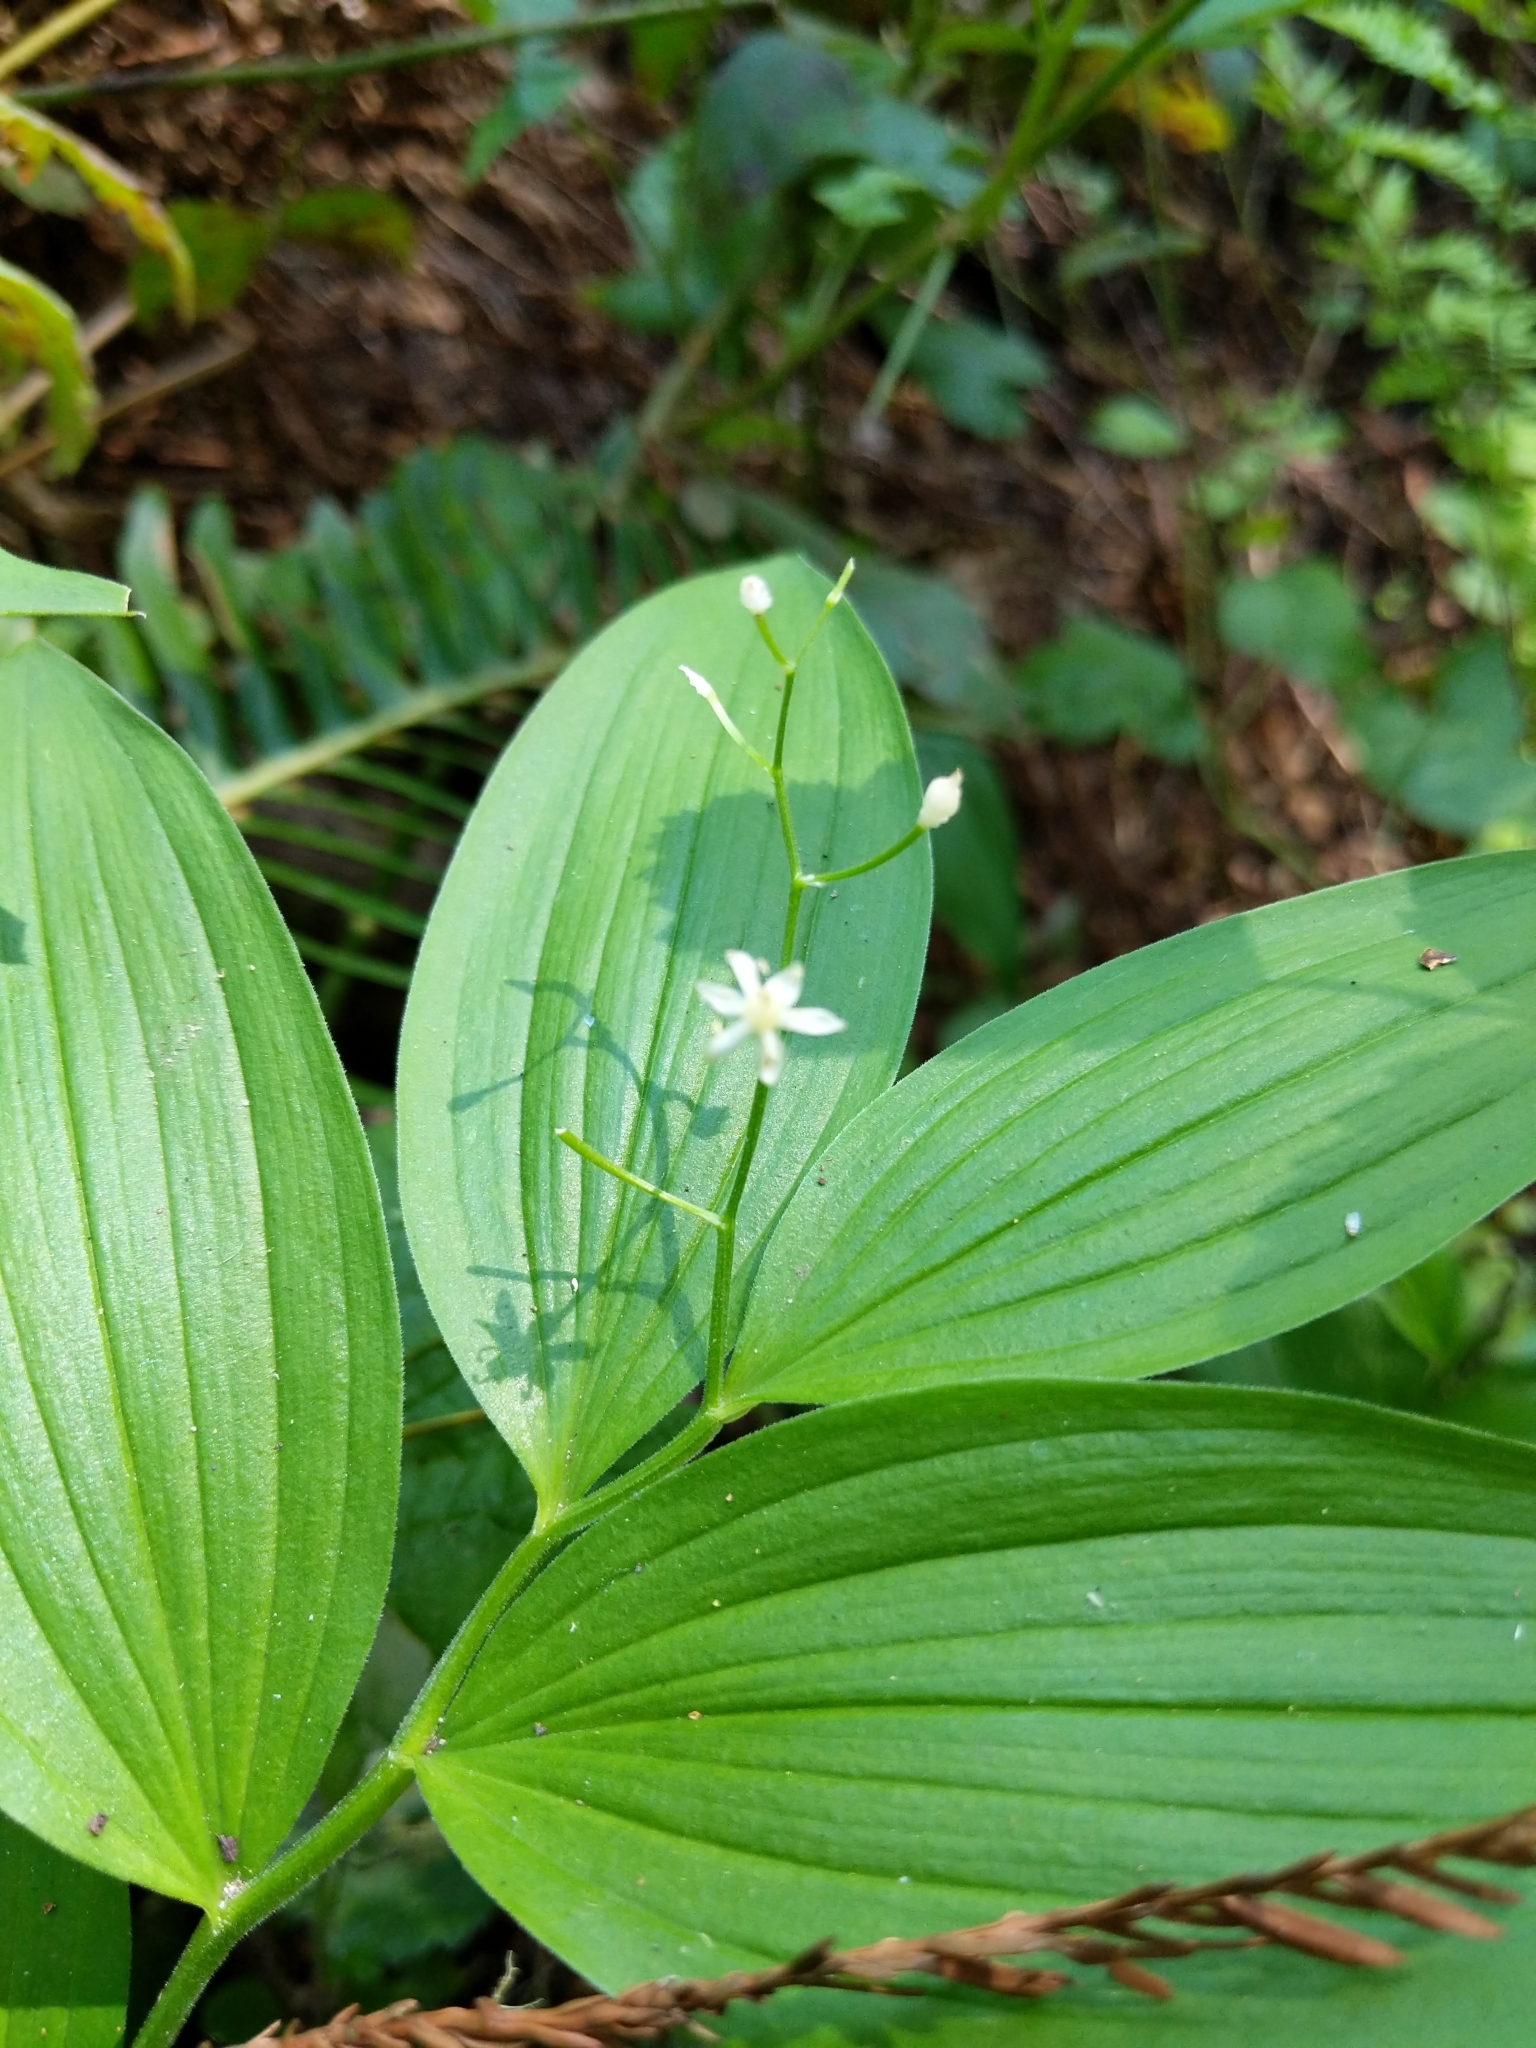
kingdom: Plantae
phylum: Tracheophyta
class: Liliopsida
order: Asparagales
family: Asparagaceae
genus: Maianthemum
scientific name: Maianthemum stellatum
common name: Little false solomon's seal
